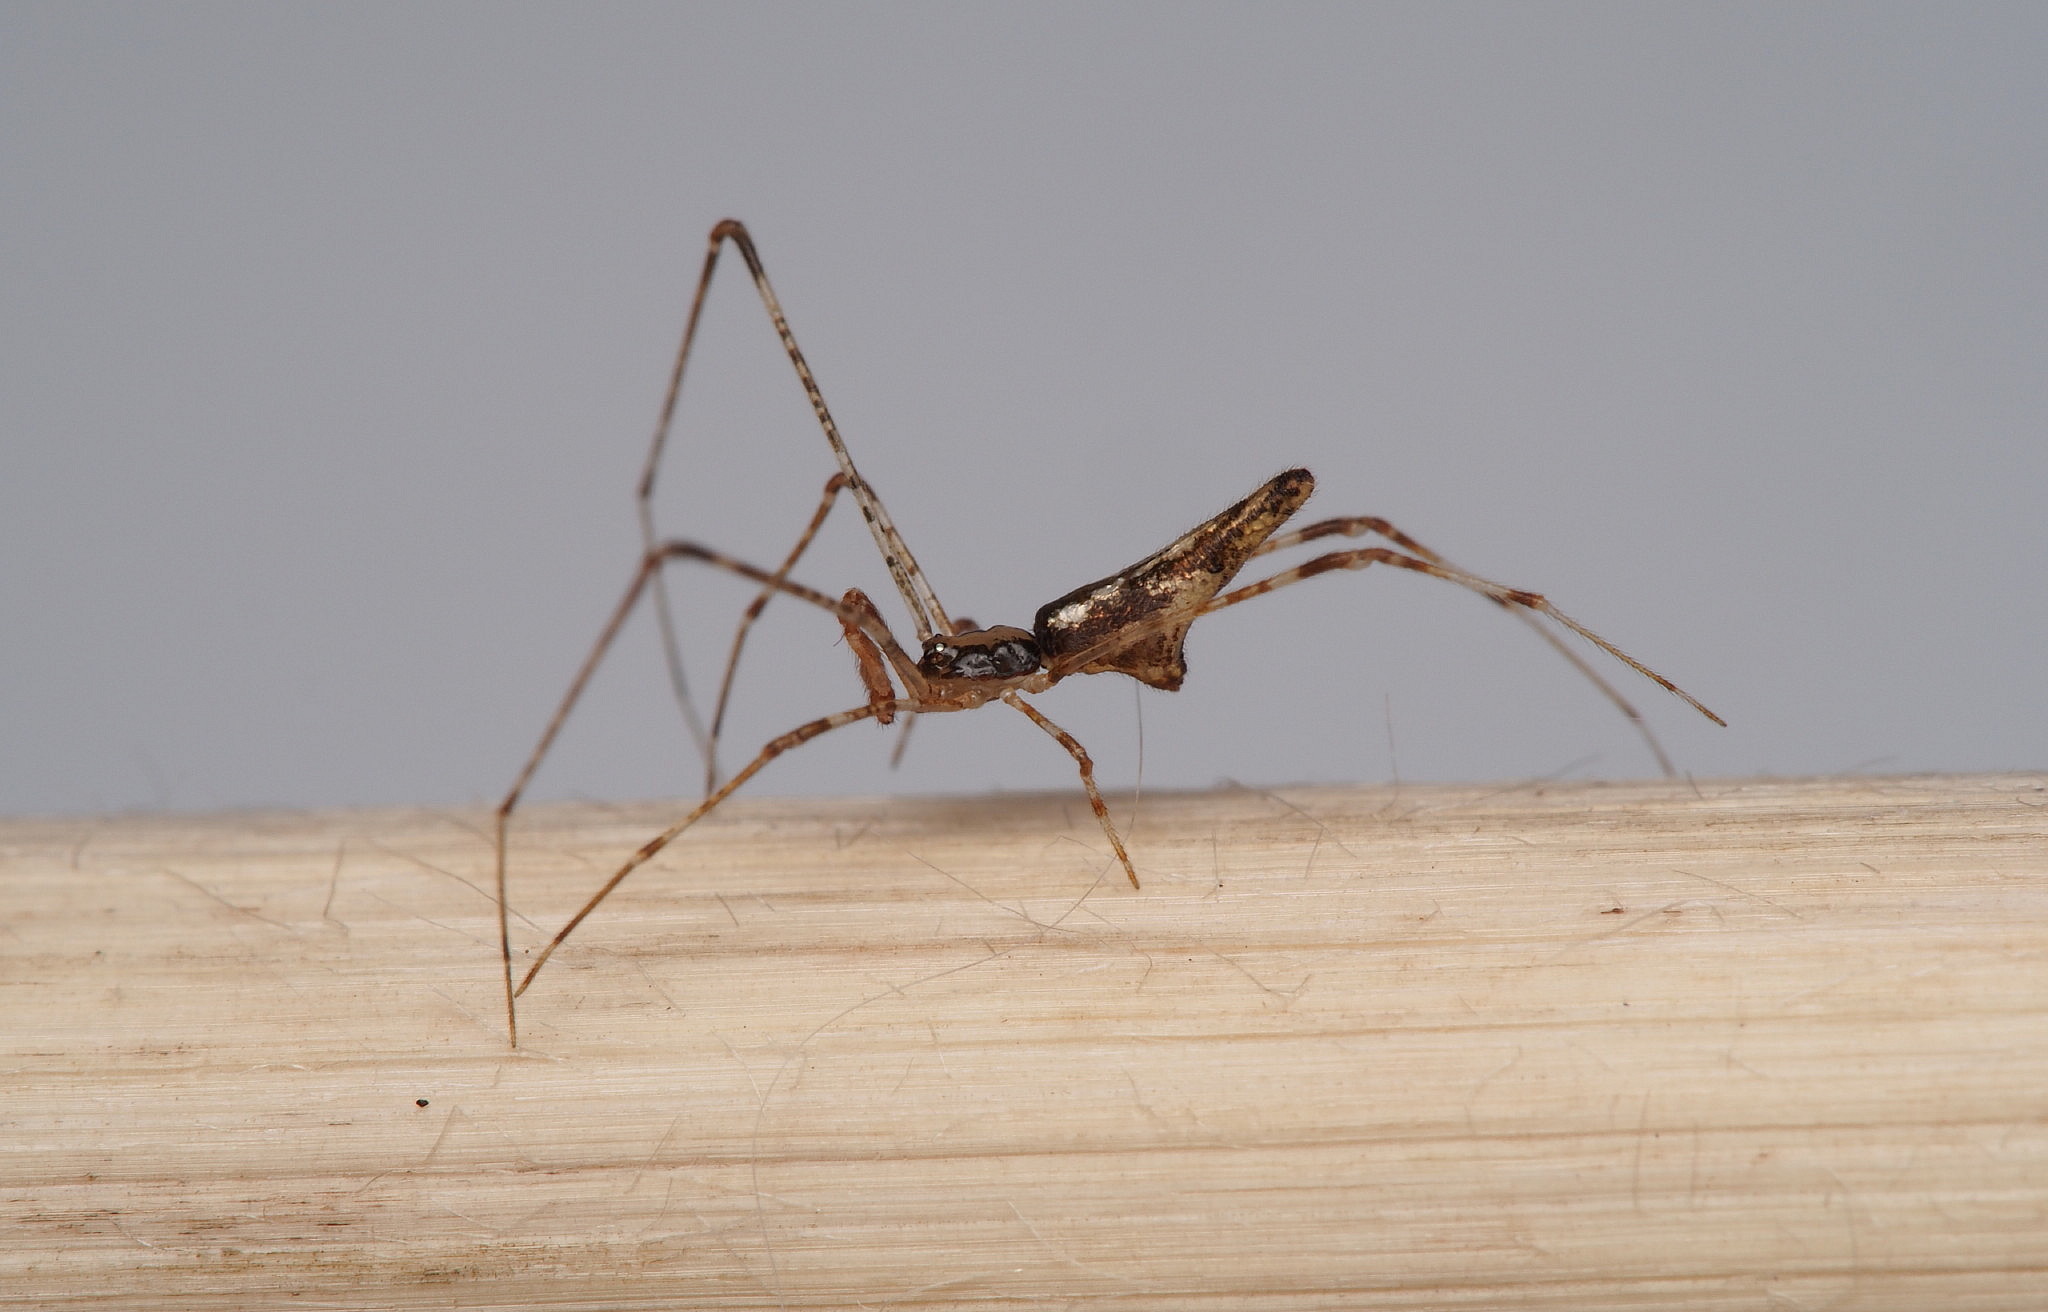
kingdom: Animalia
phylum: Arthropoda
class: Arachnida
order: Araneae
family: Theridiidae
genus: Rhomphaea
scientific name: Rhomphaea urquharti
